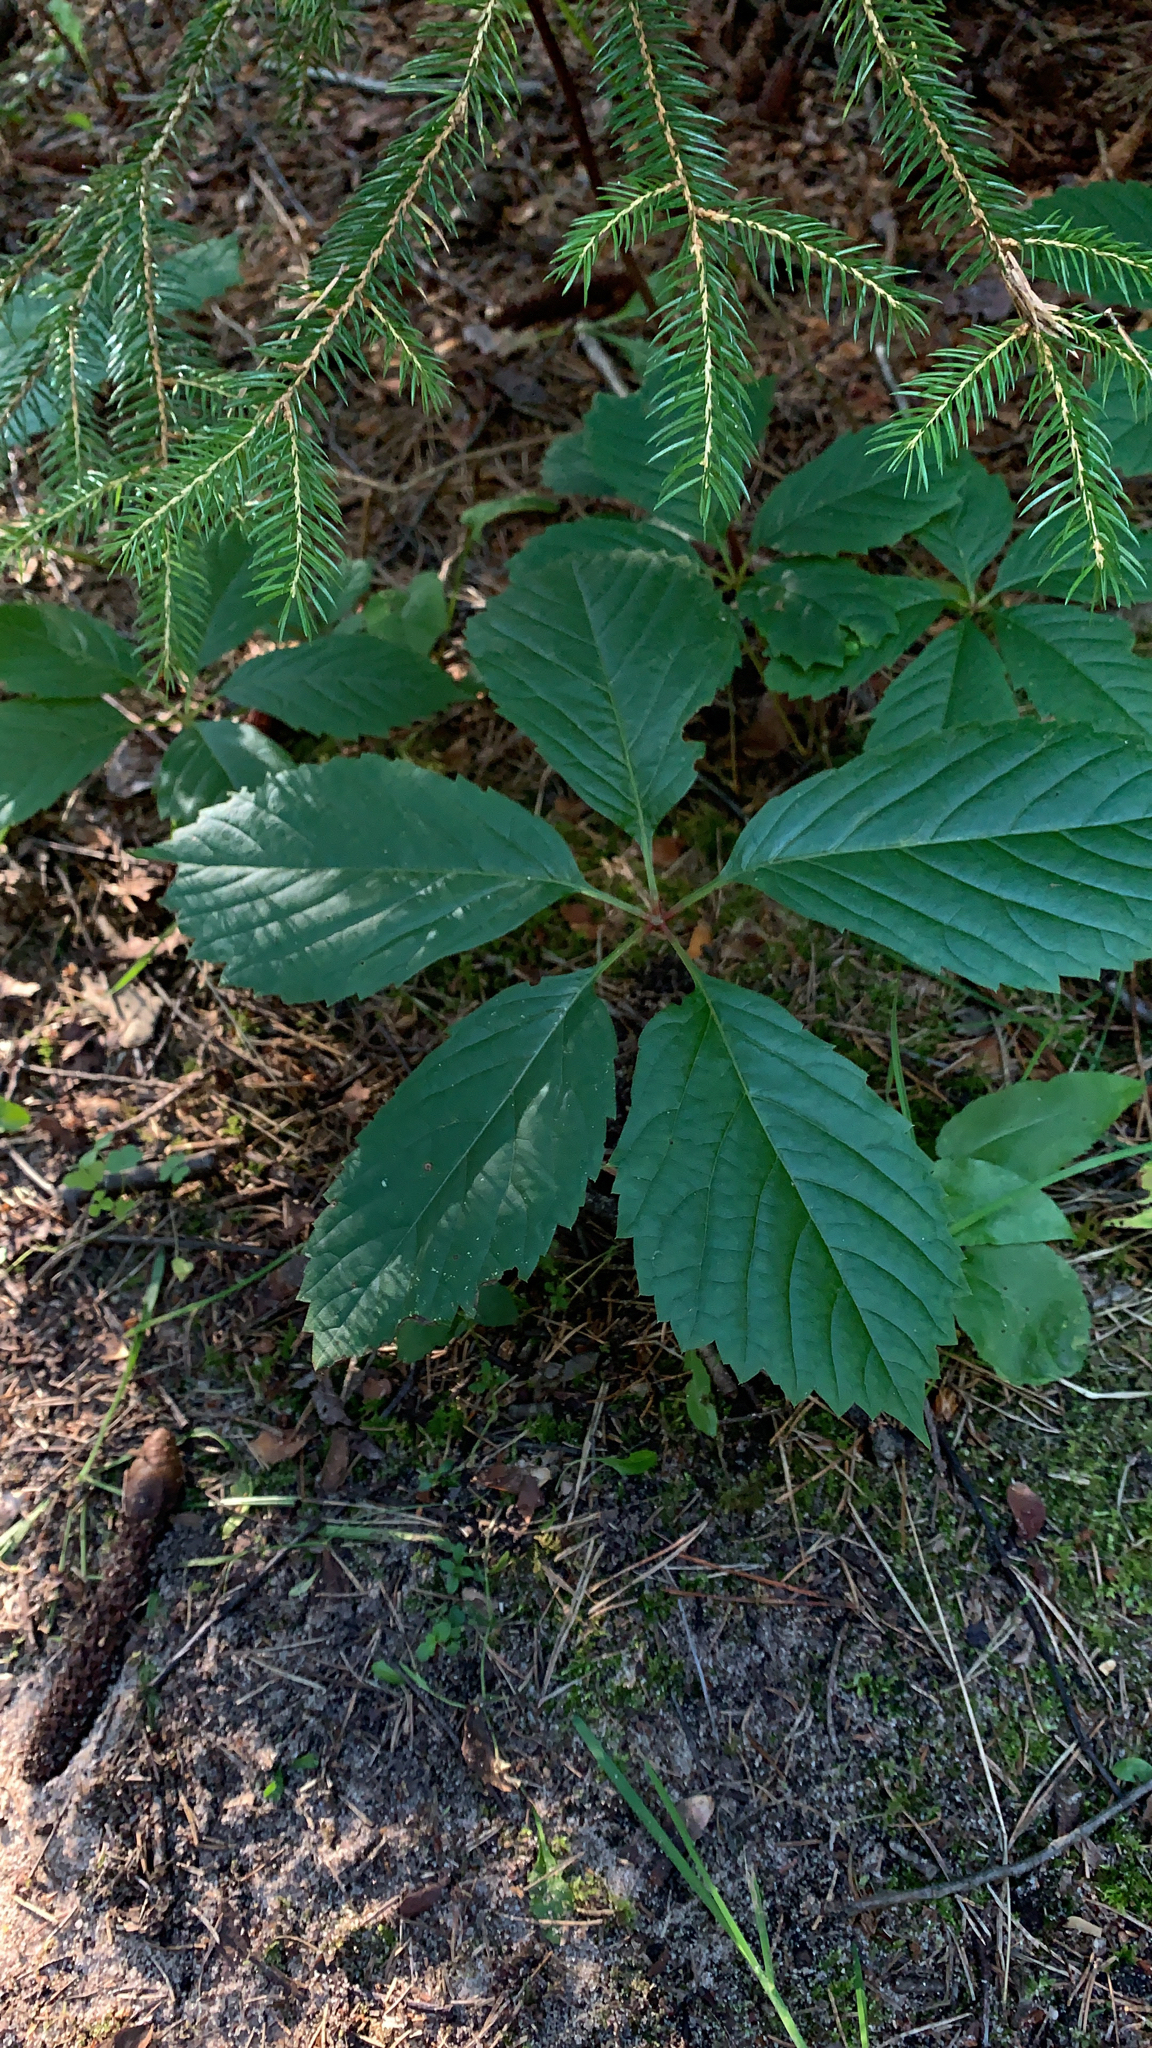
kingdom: Plantae
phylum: Tracheophyta
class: Magnoliopsida
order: Vitales
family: Vitaceae
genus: Parthenocissus
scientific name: Parthenocissus inserta
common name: False virginia-creeper
